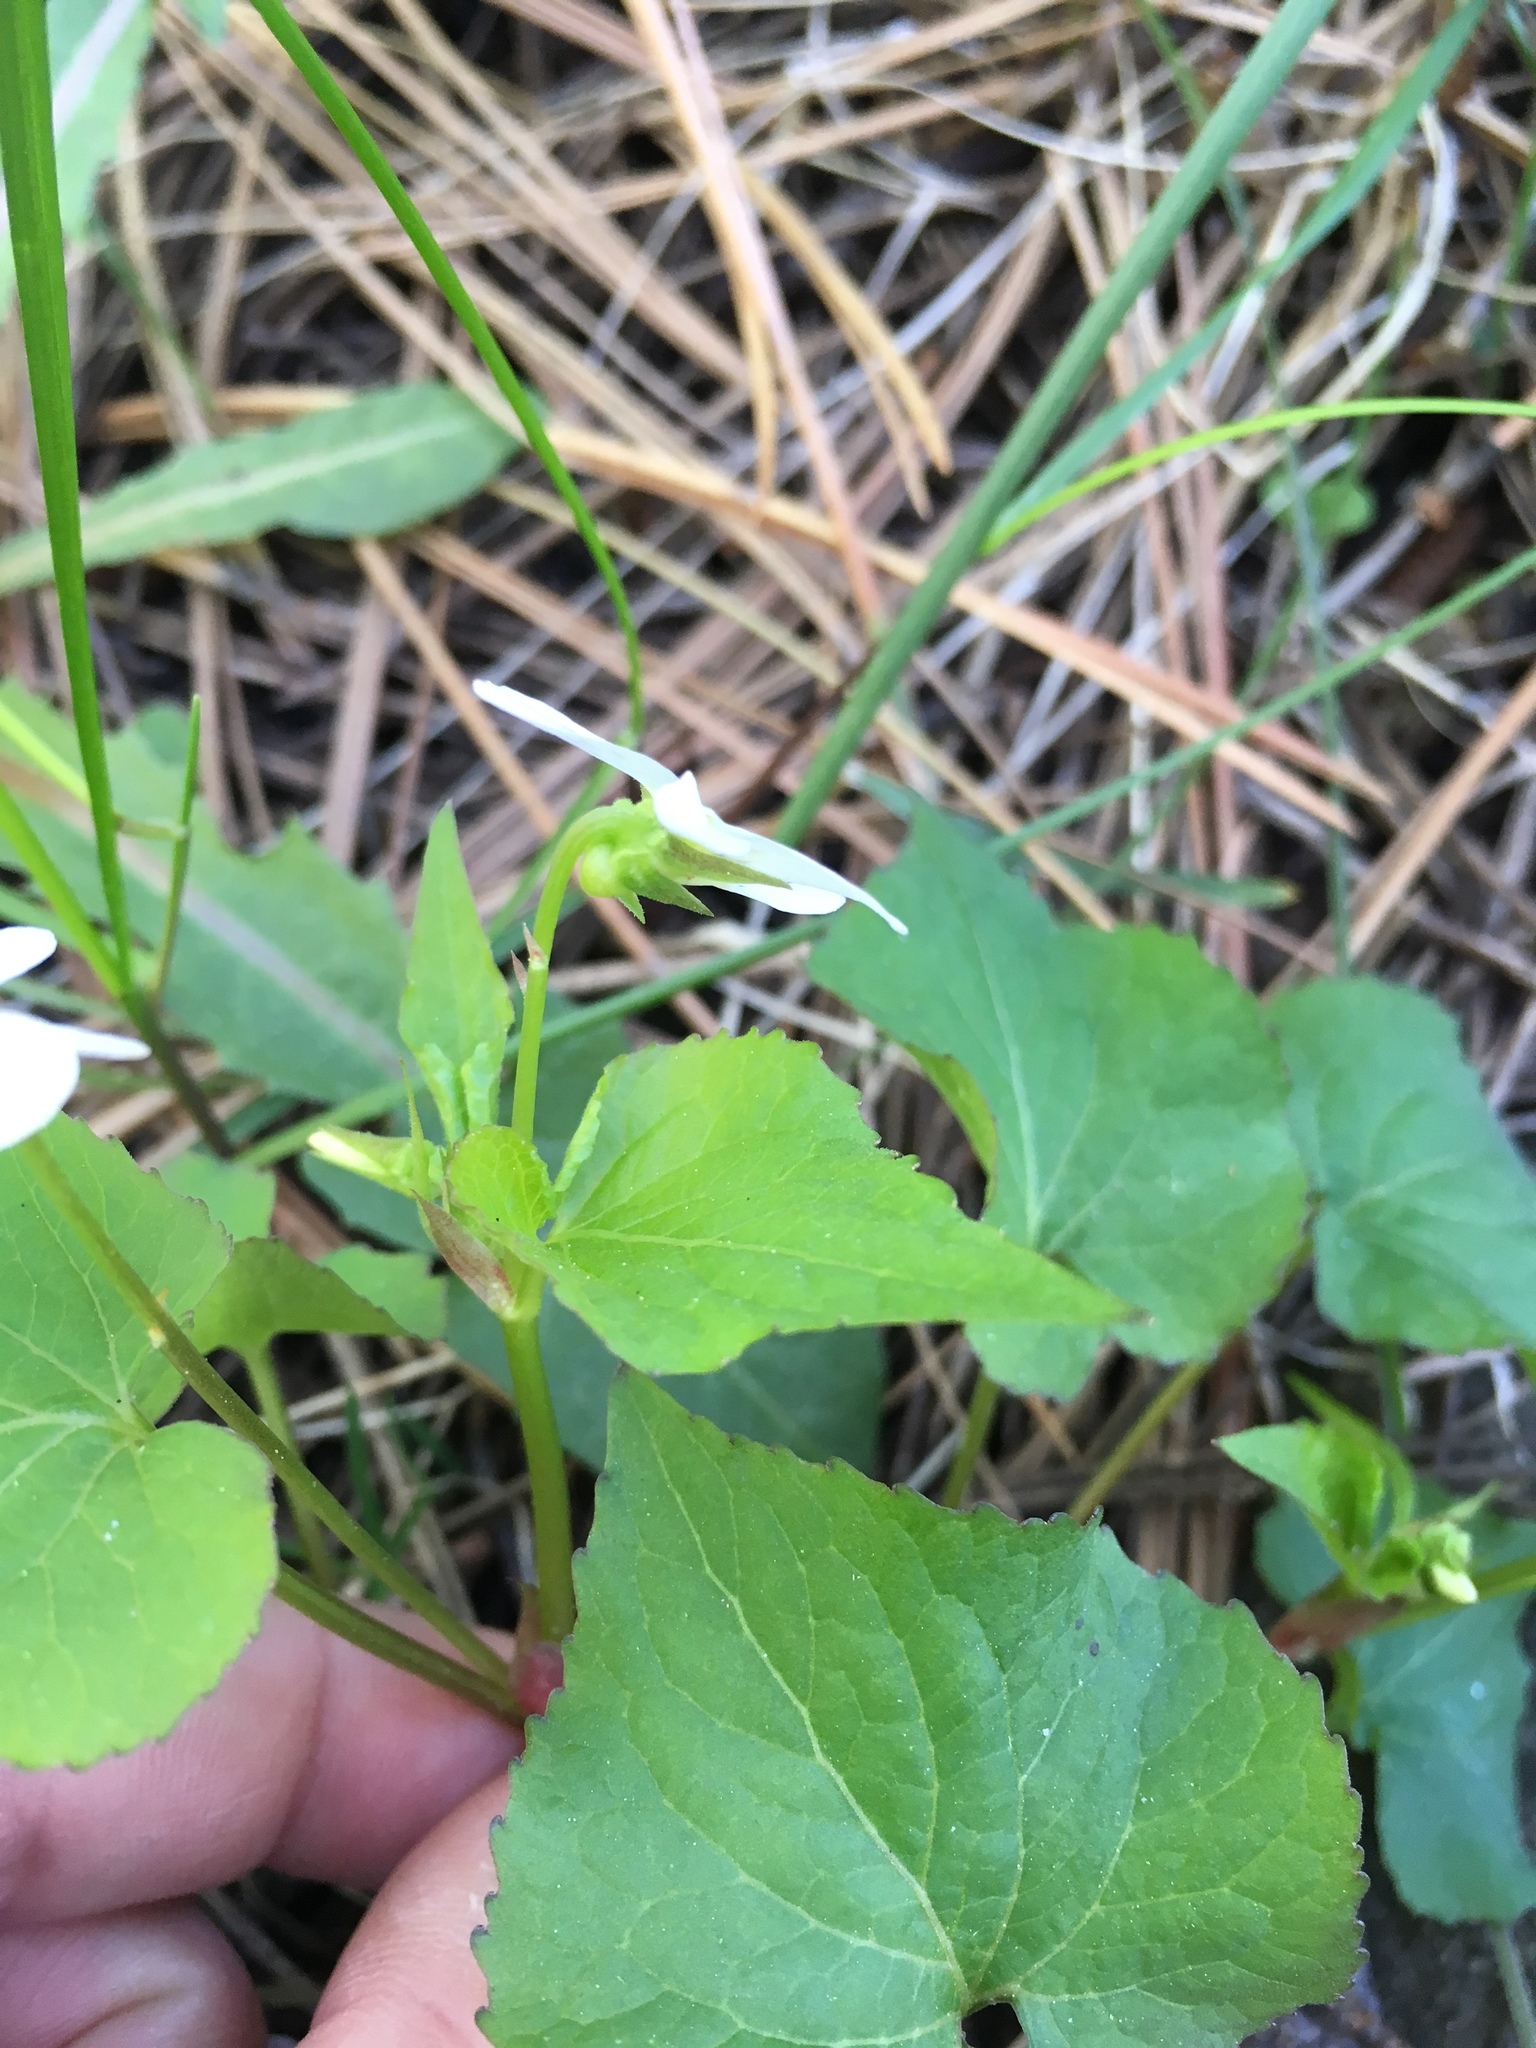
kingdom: Plantae
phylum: Tracheophyta
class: Magnoliopsida
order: Malpighiales
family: Violaceae
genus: Viola
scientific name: Viola canadensis
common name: Canada violet
